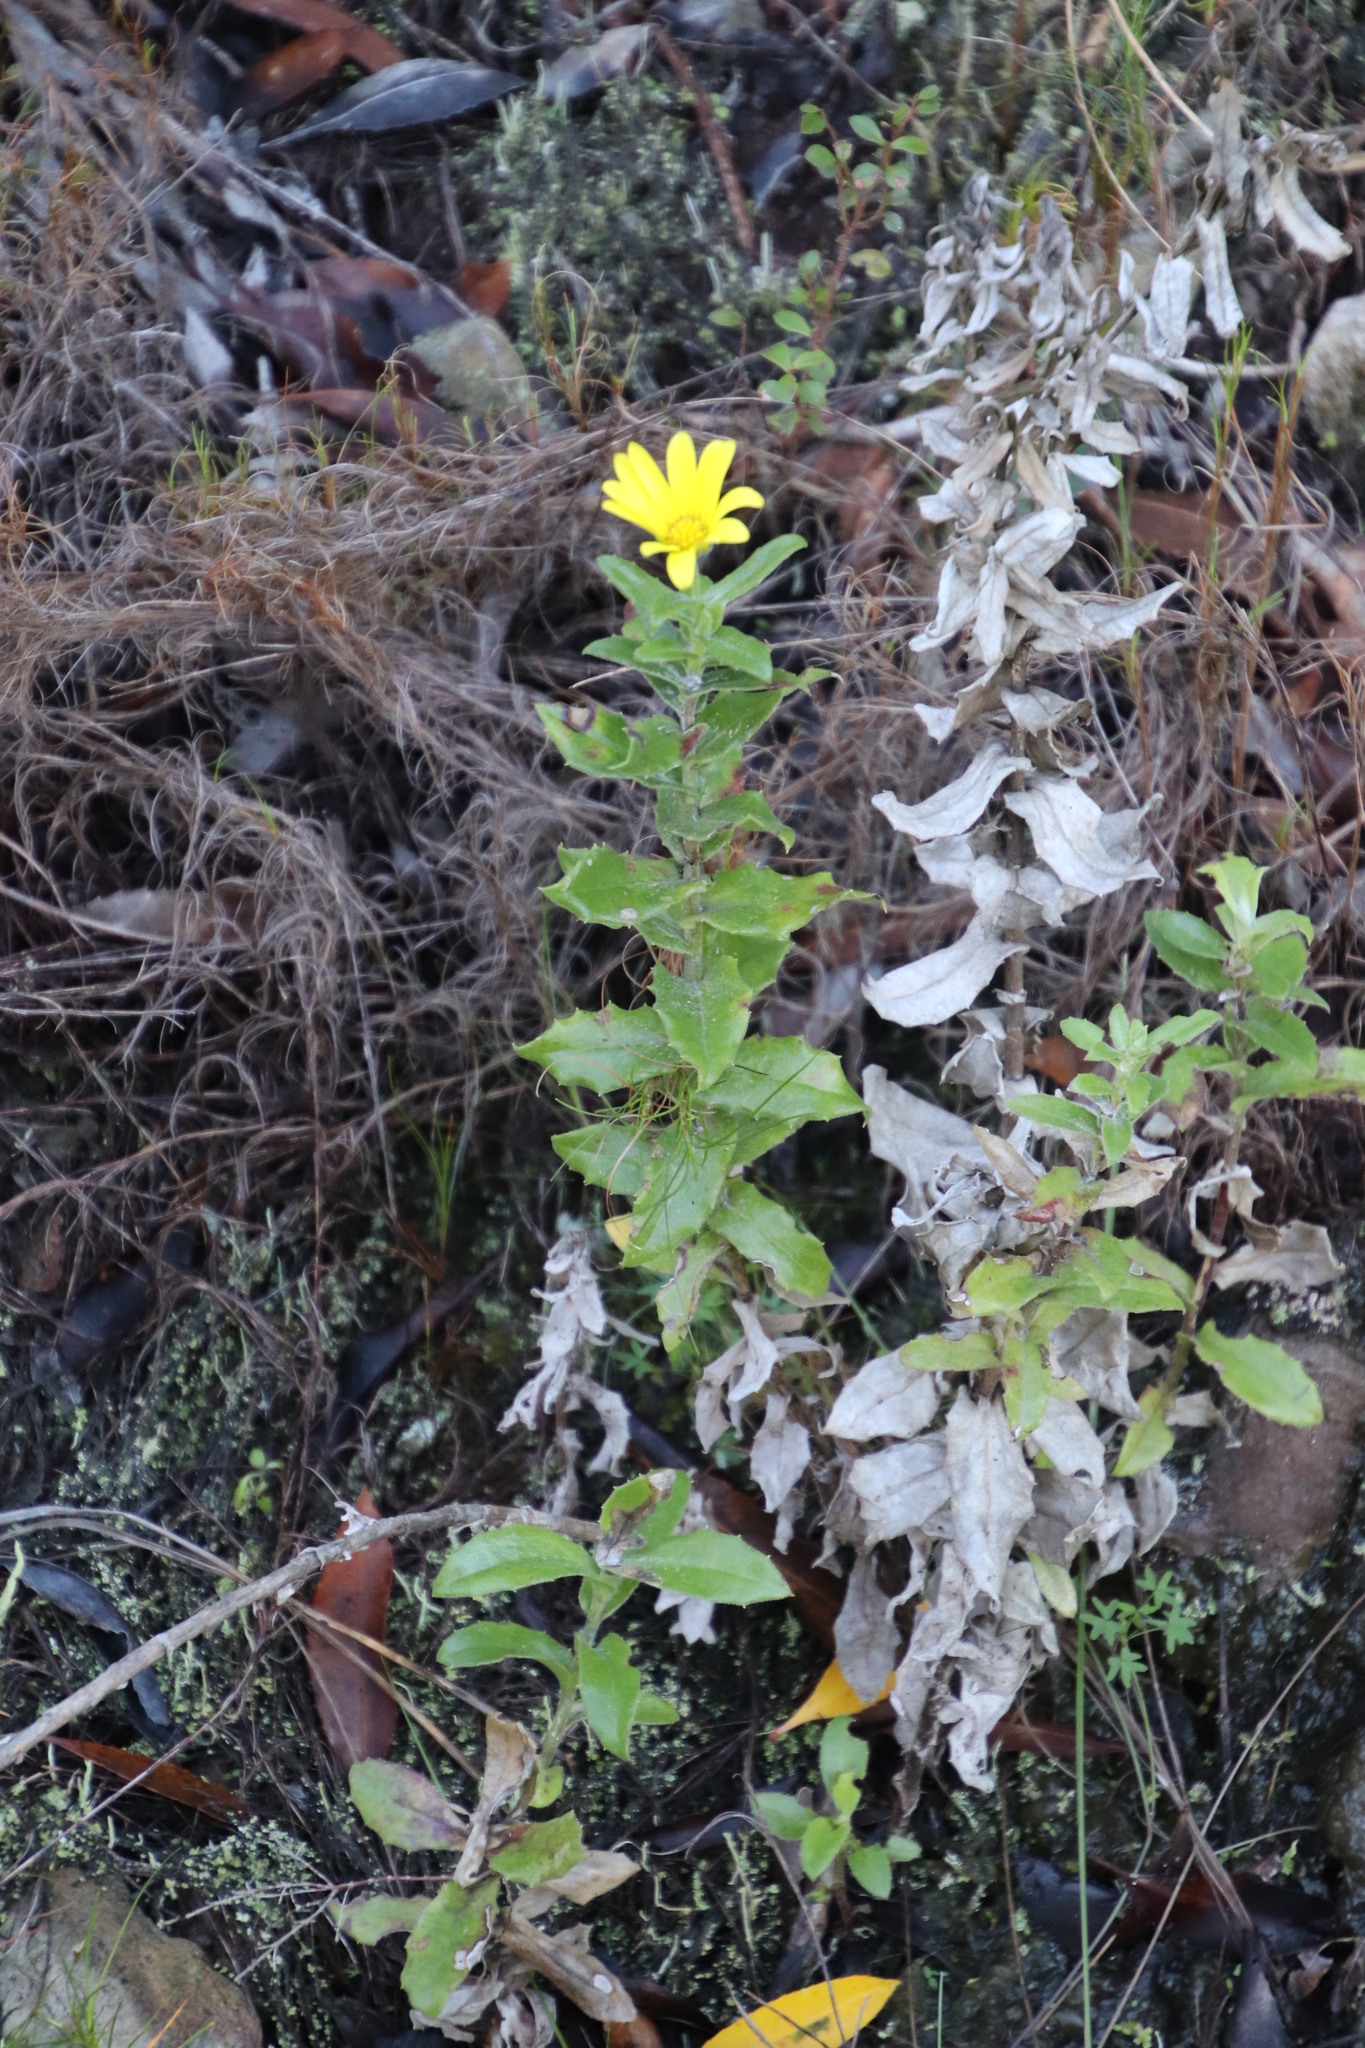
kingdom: Plantae
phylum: Tracheophyta
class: Magnoliopsida
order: Asterales
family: Asteraceae
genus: Osteospermum
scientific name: Osteospermum ilicifolium
